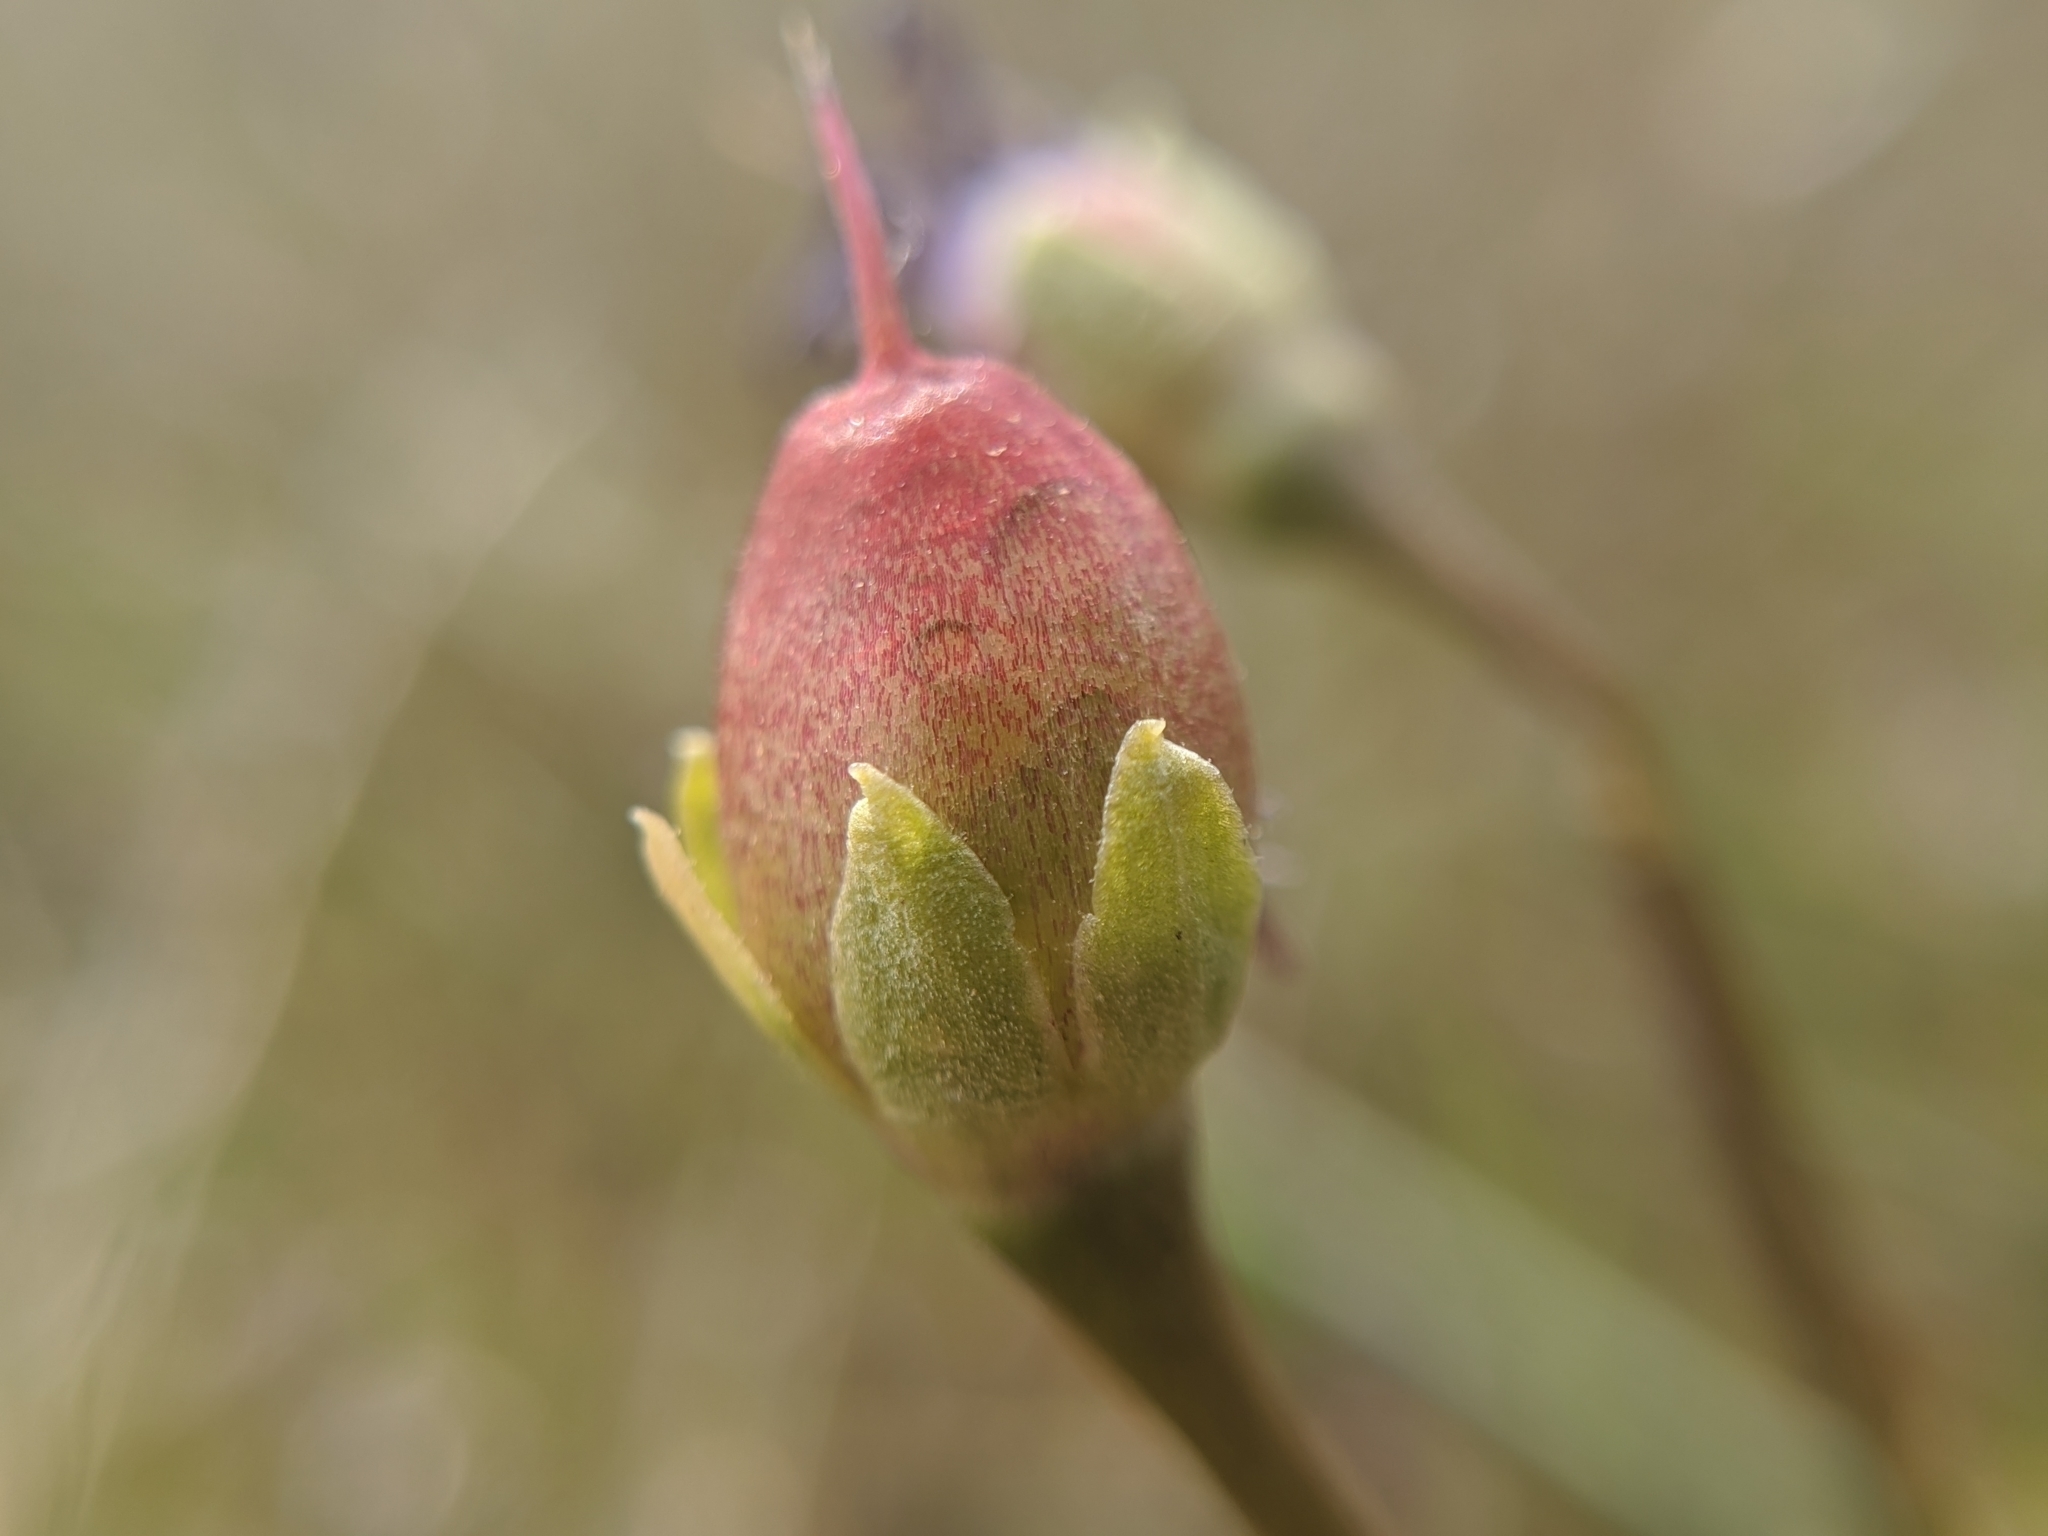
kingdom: Plantae
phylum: Tracheophyta
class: Magnoliopsida
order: Ericales
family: Primulaceae
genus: Dodecatheon
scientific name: Dodecatheon clevelandii
